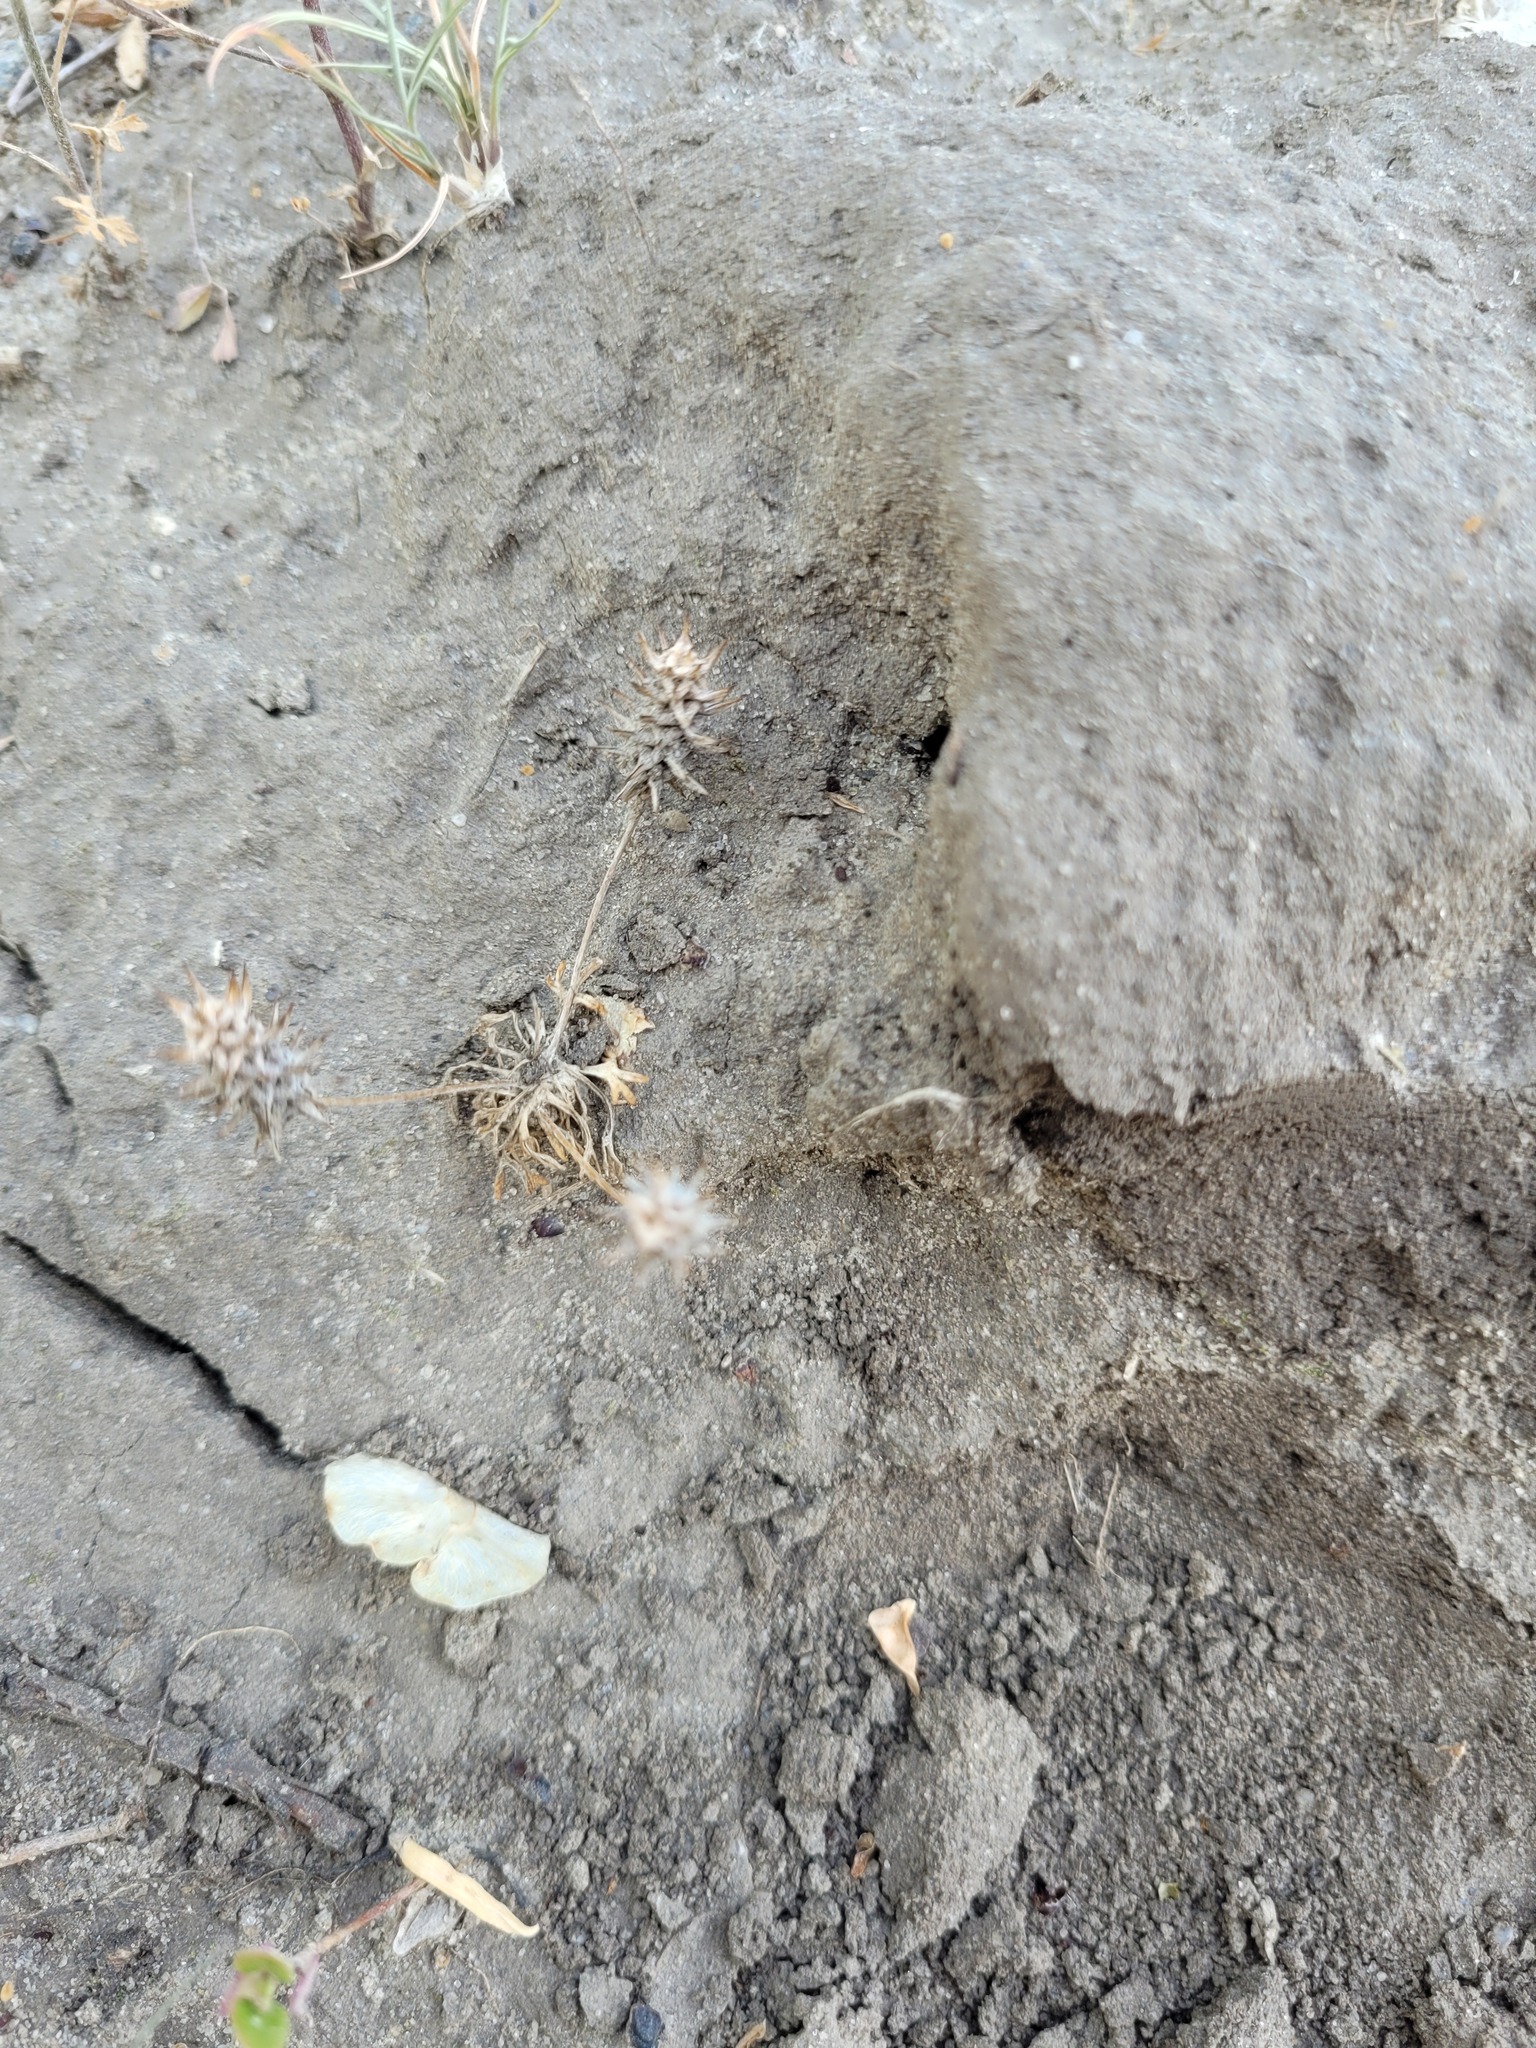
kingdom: Plantae
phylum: Tracheophyta
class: Magnoliopsida
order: Ranunculales
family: Ranunculaceae
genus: Ceratocephala
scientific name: Ceratocephala orthoceras
